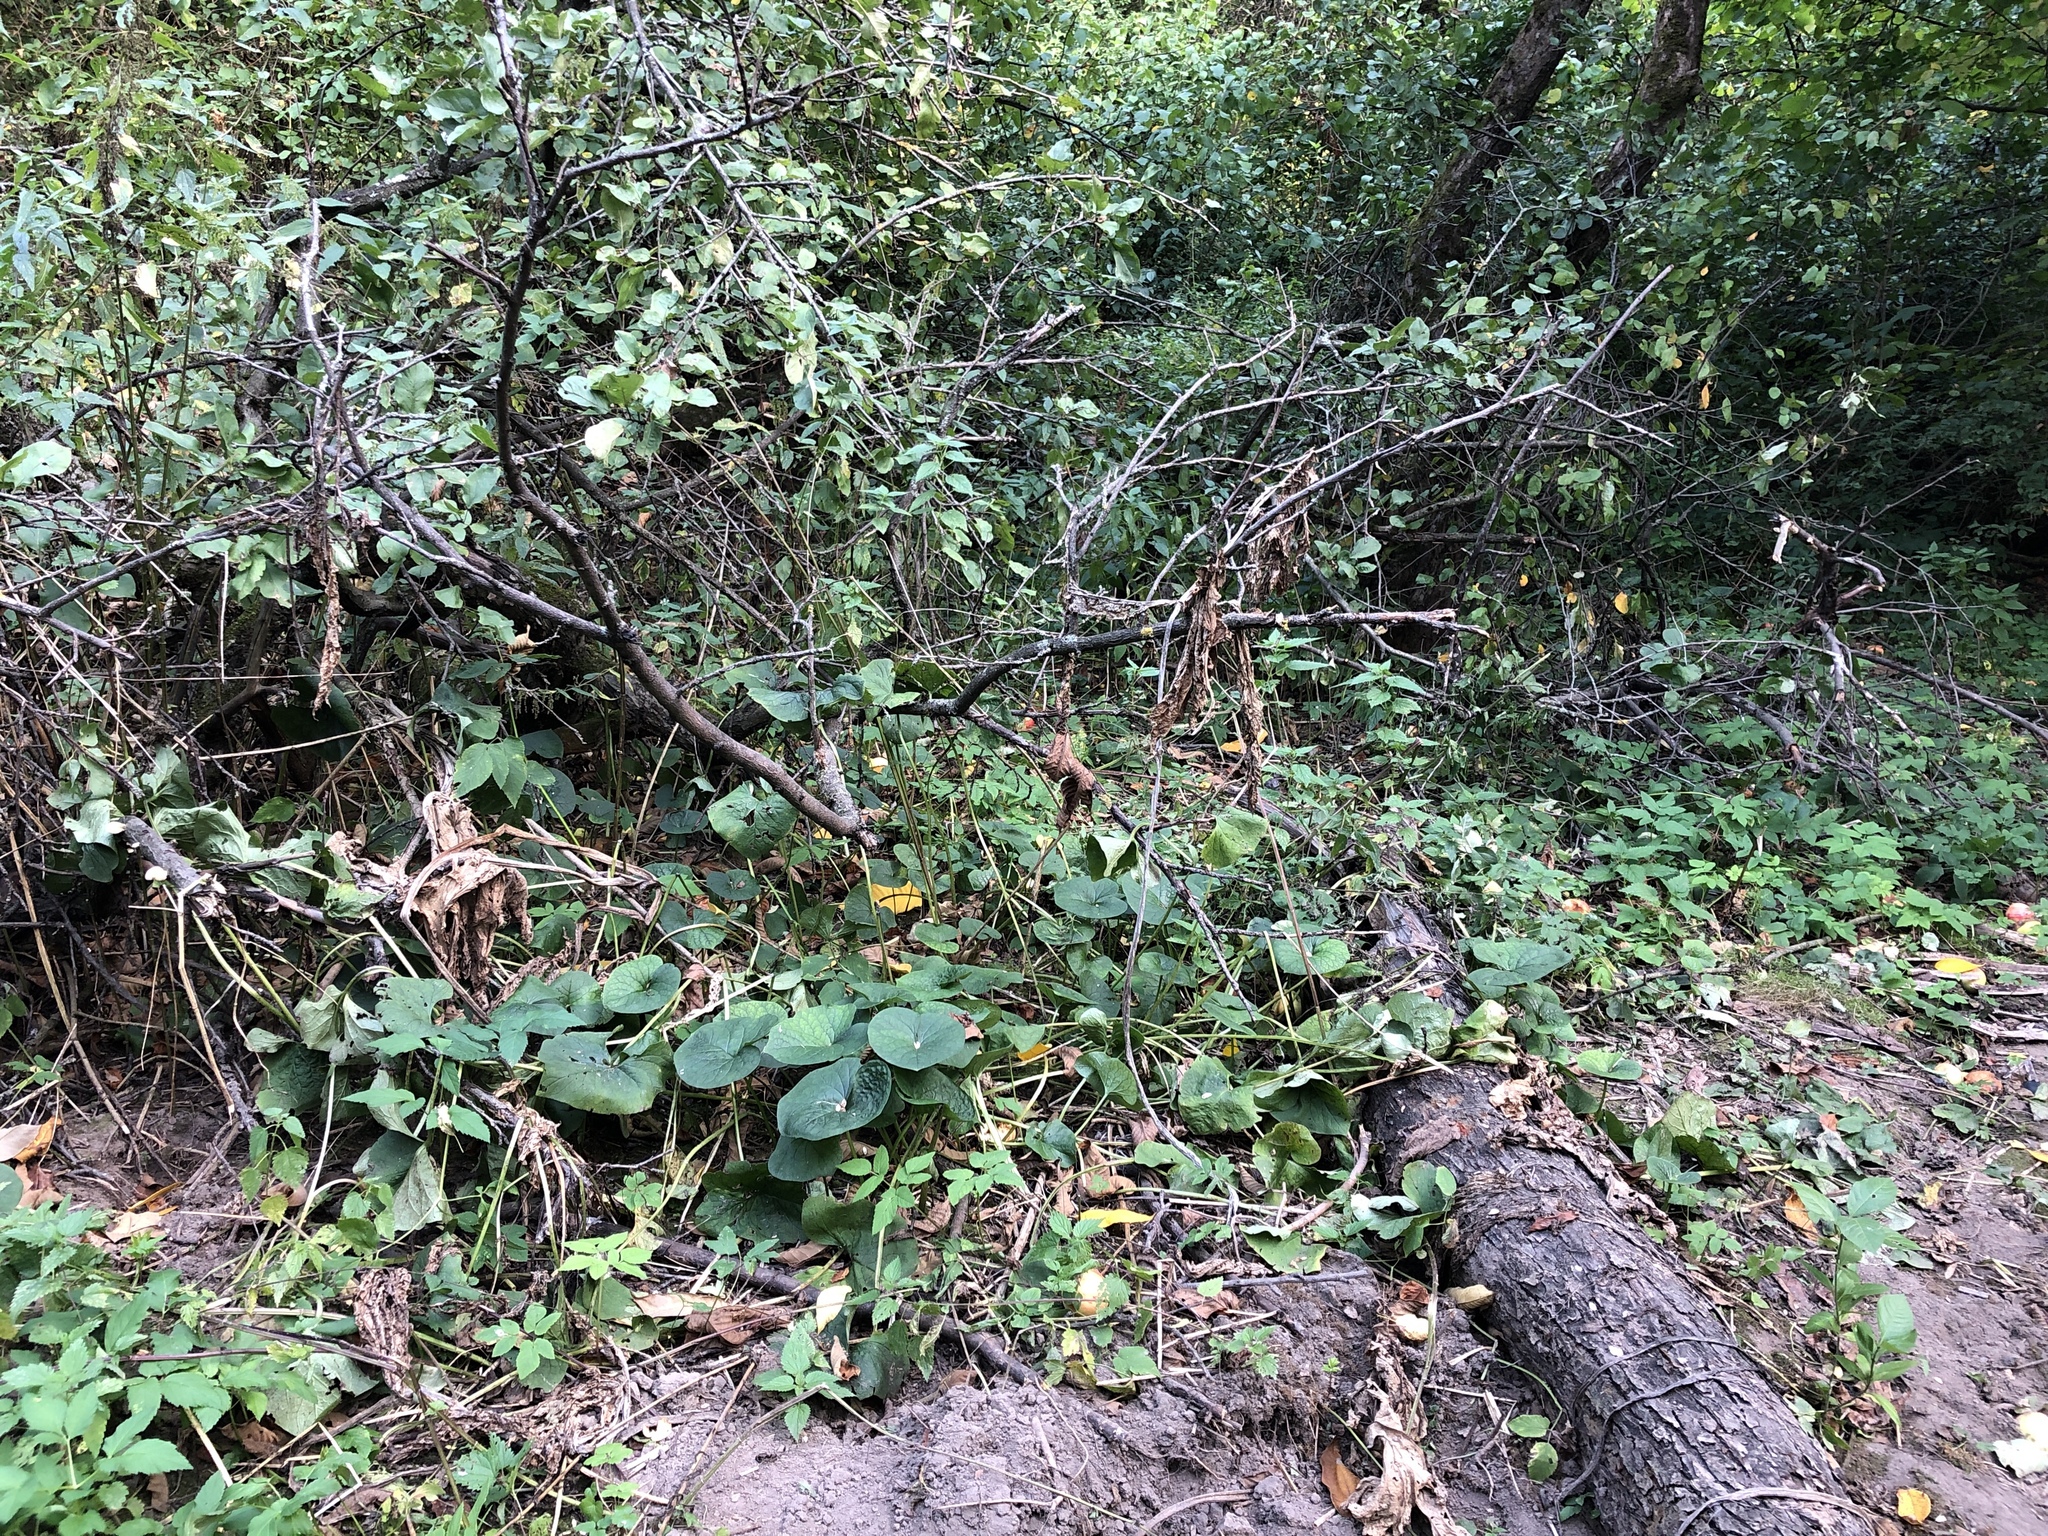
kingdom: Plantae
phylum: Tracheophyta
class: Magnoliopsida
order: Boraginales
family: Boraginaceae
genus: Brunnera
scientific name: Brunnera sibirica
